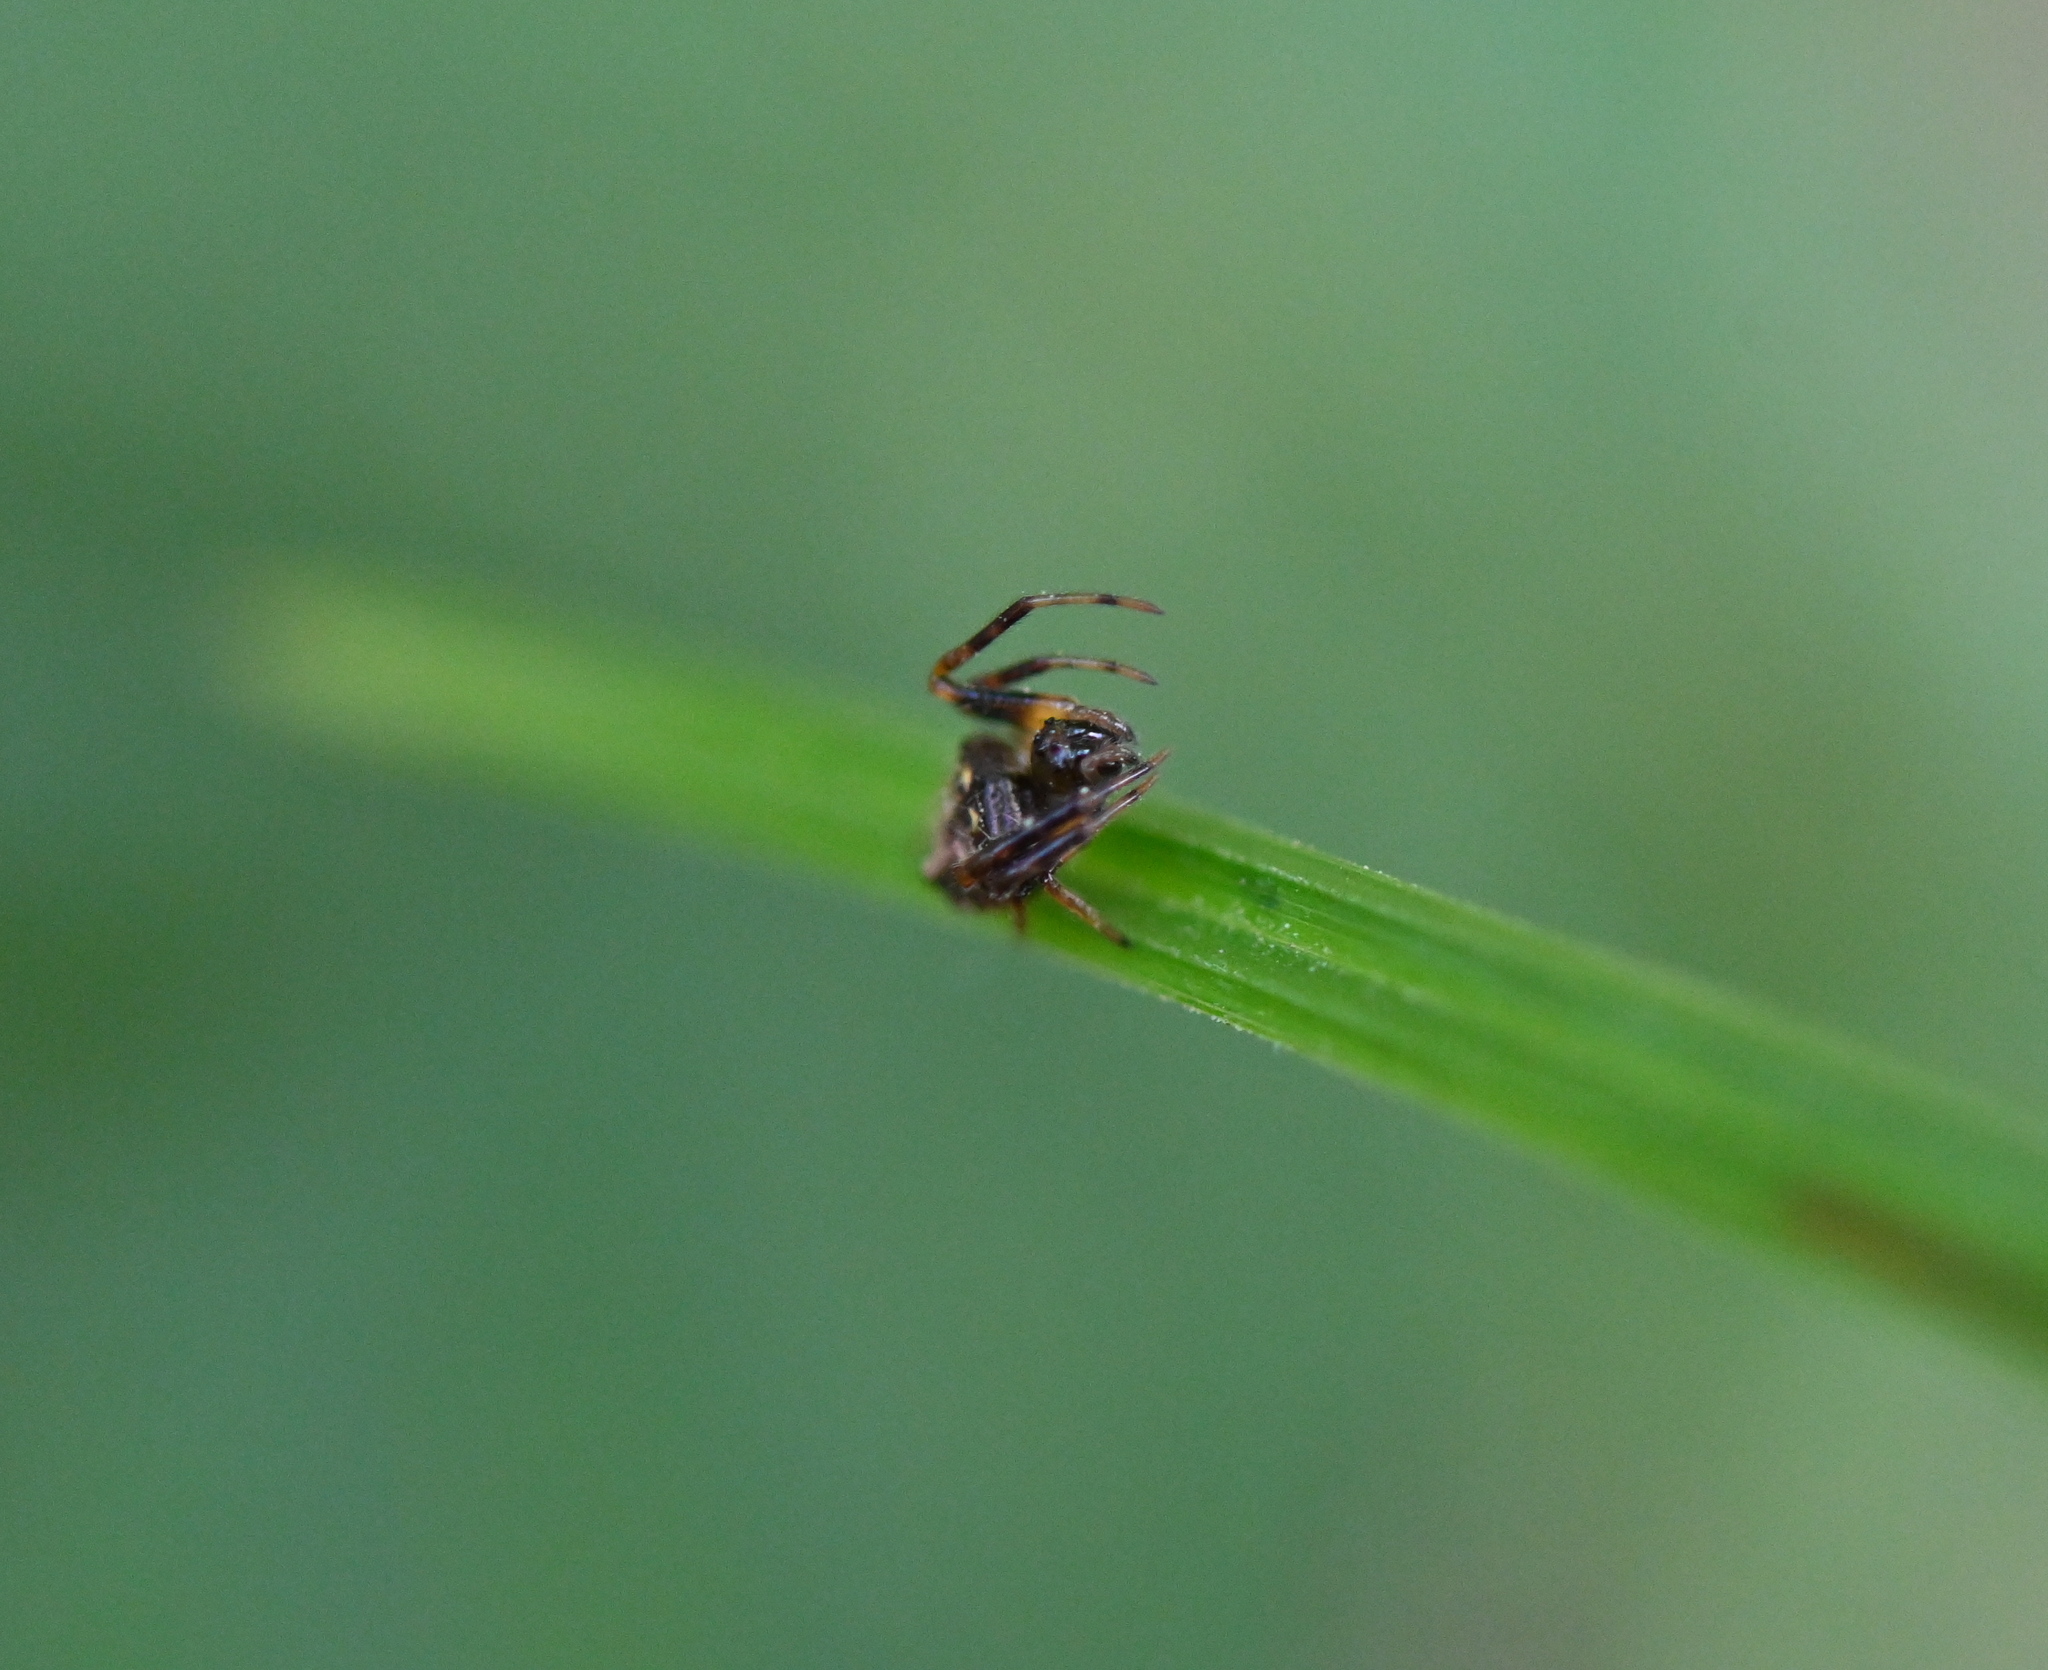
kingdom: Animalia
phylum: Arthropoda
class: Arachnida
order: Araneae
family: Araneidae
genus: Verrucosa
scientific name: Verrucosa arenata
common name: Orb weavers
